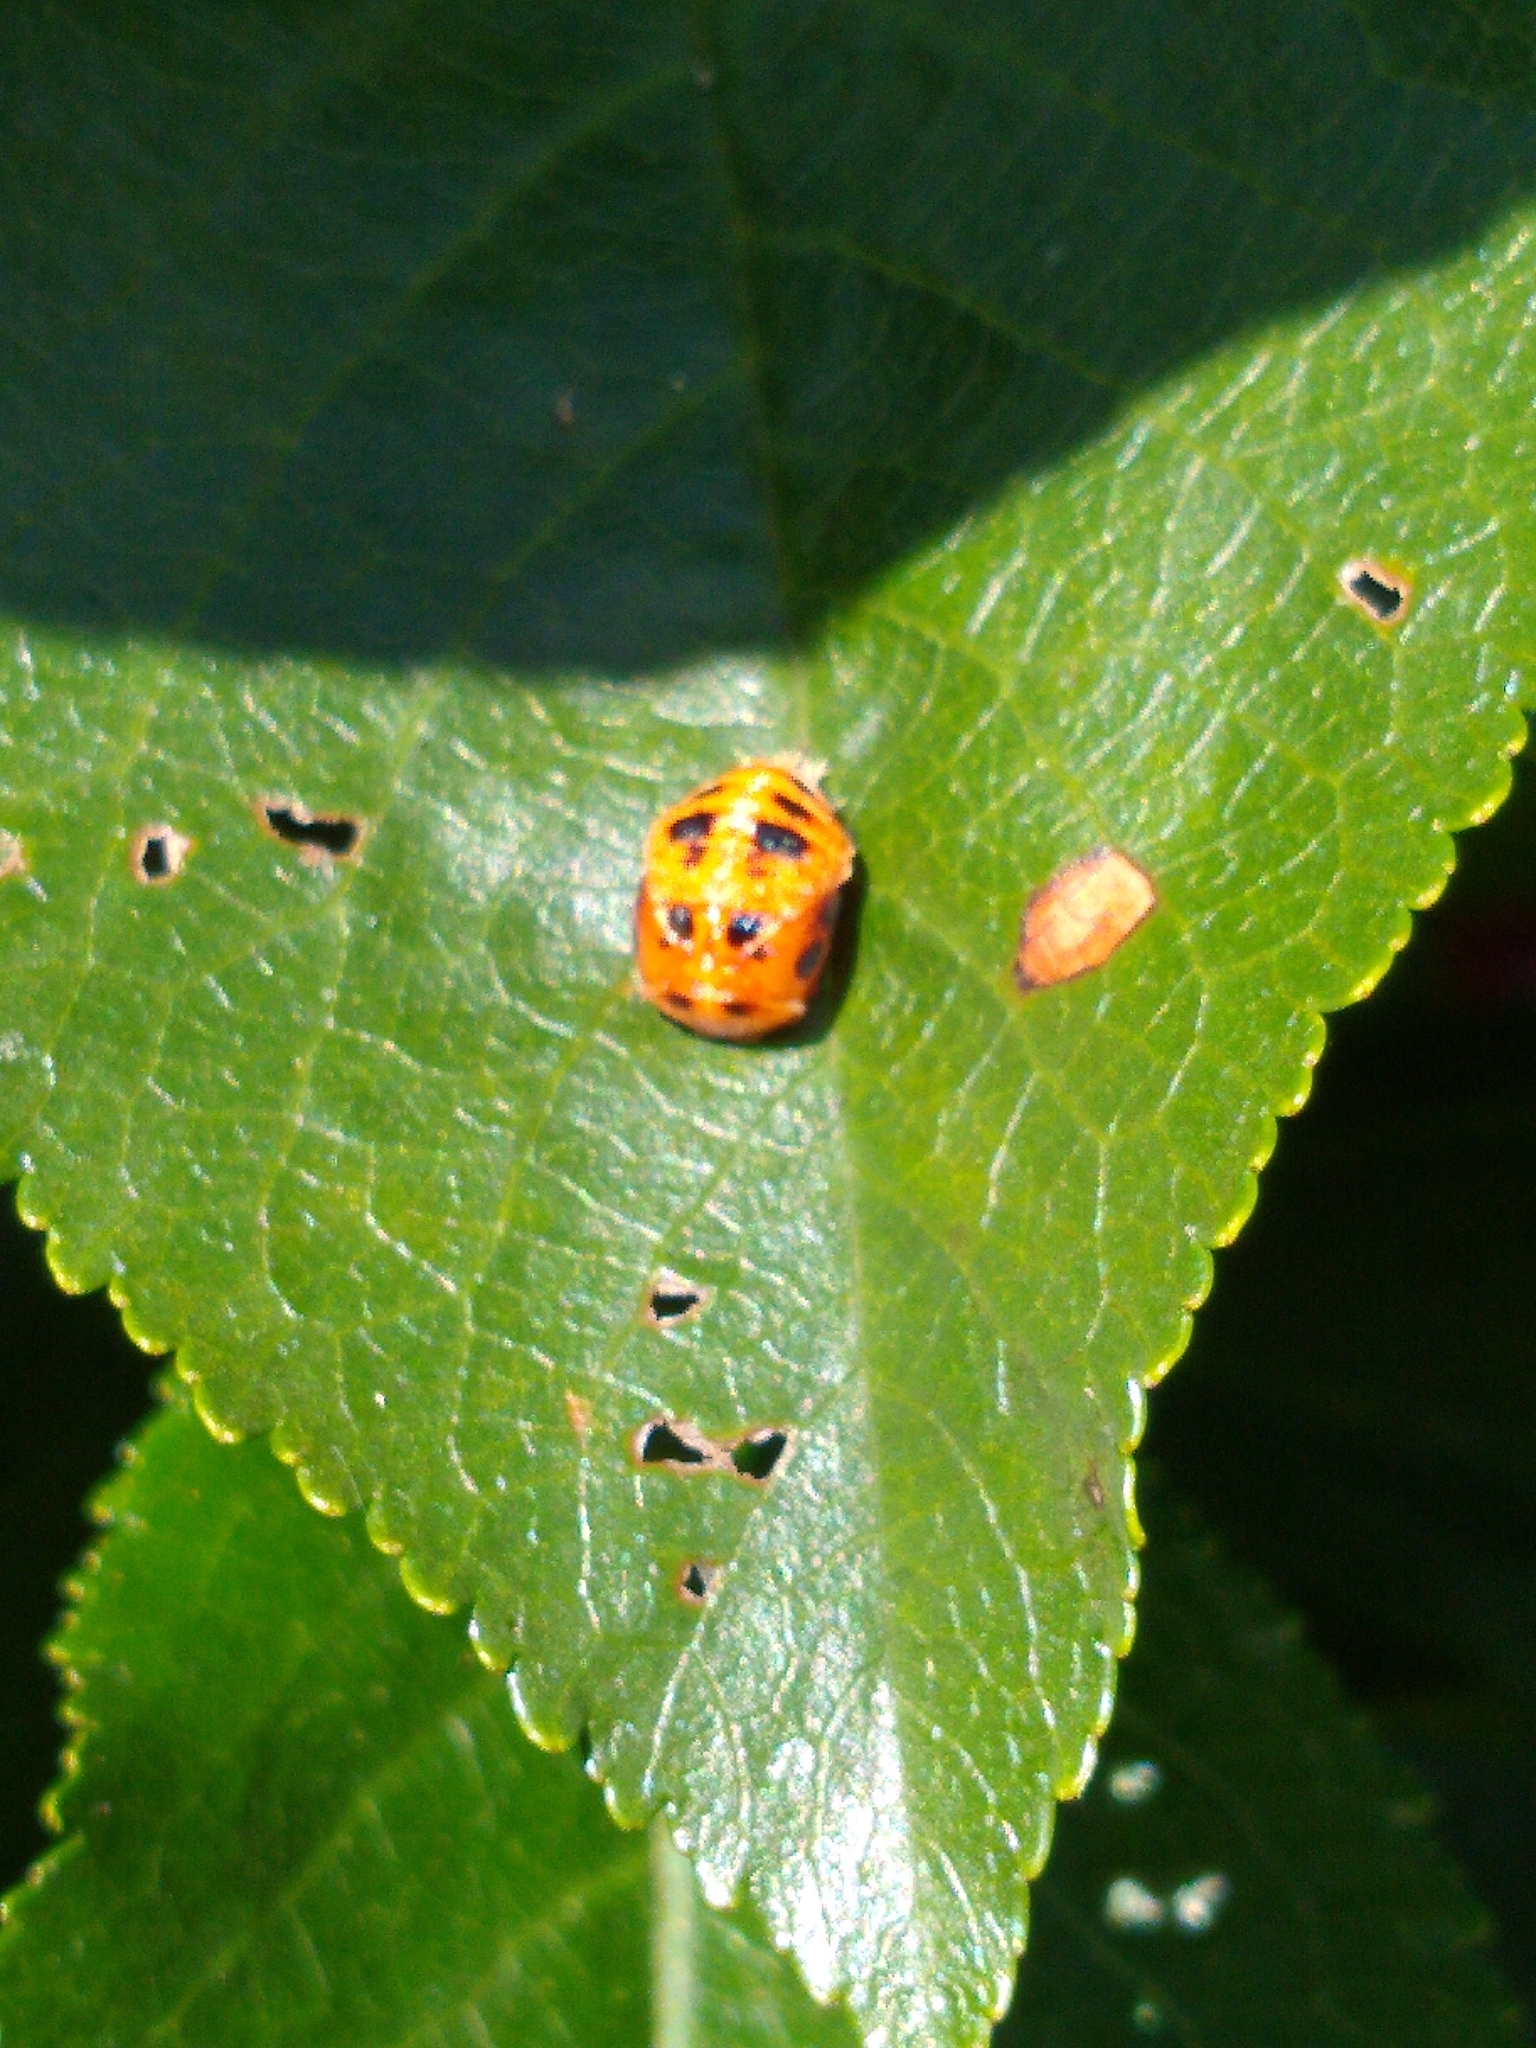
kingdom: Animalia
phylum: Arthropoda
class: Insecta
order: Coleoptera
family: Coccinellidae
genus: Harmonia
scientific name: Harmonia axyridis
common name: Harlequin ladybird
